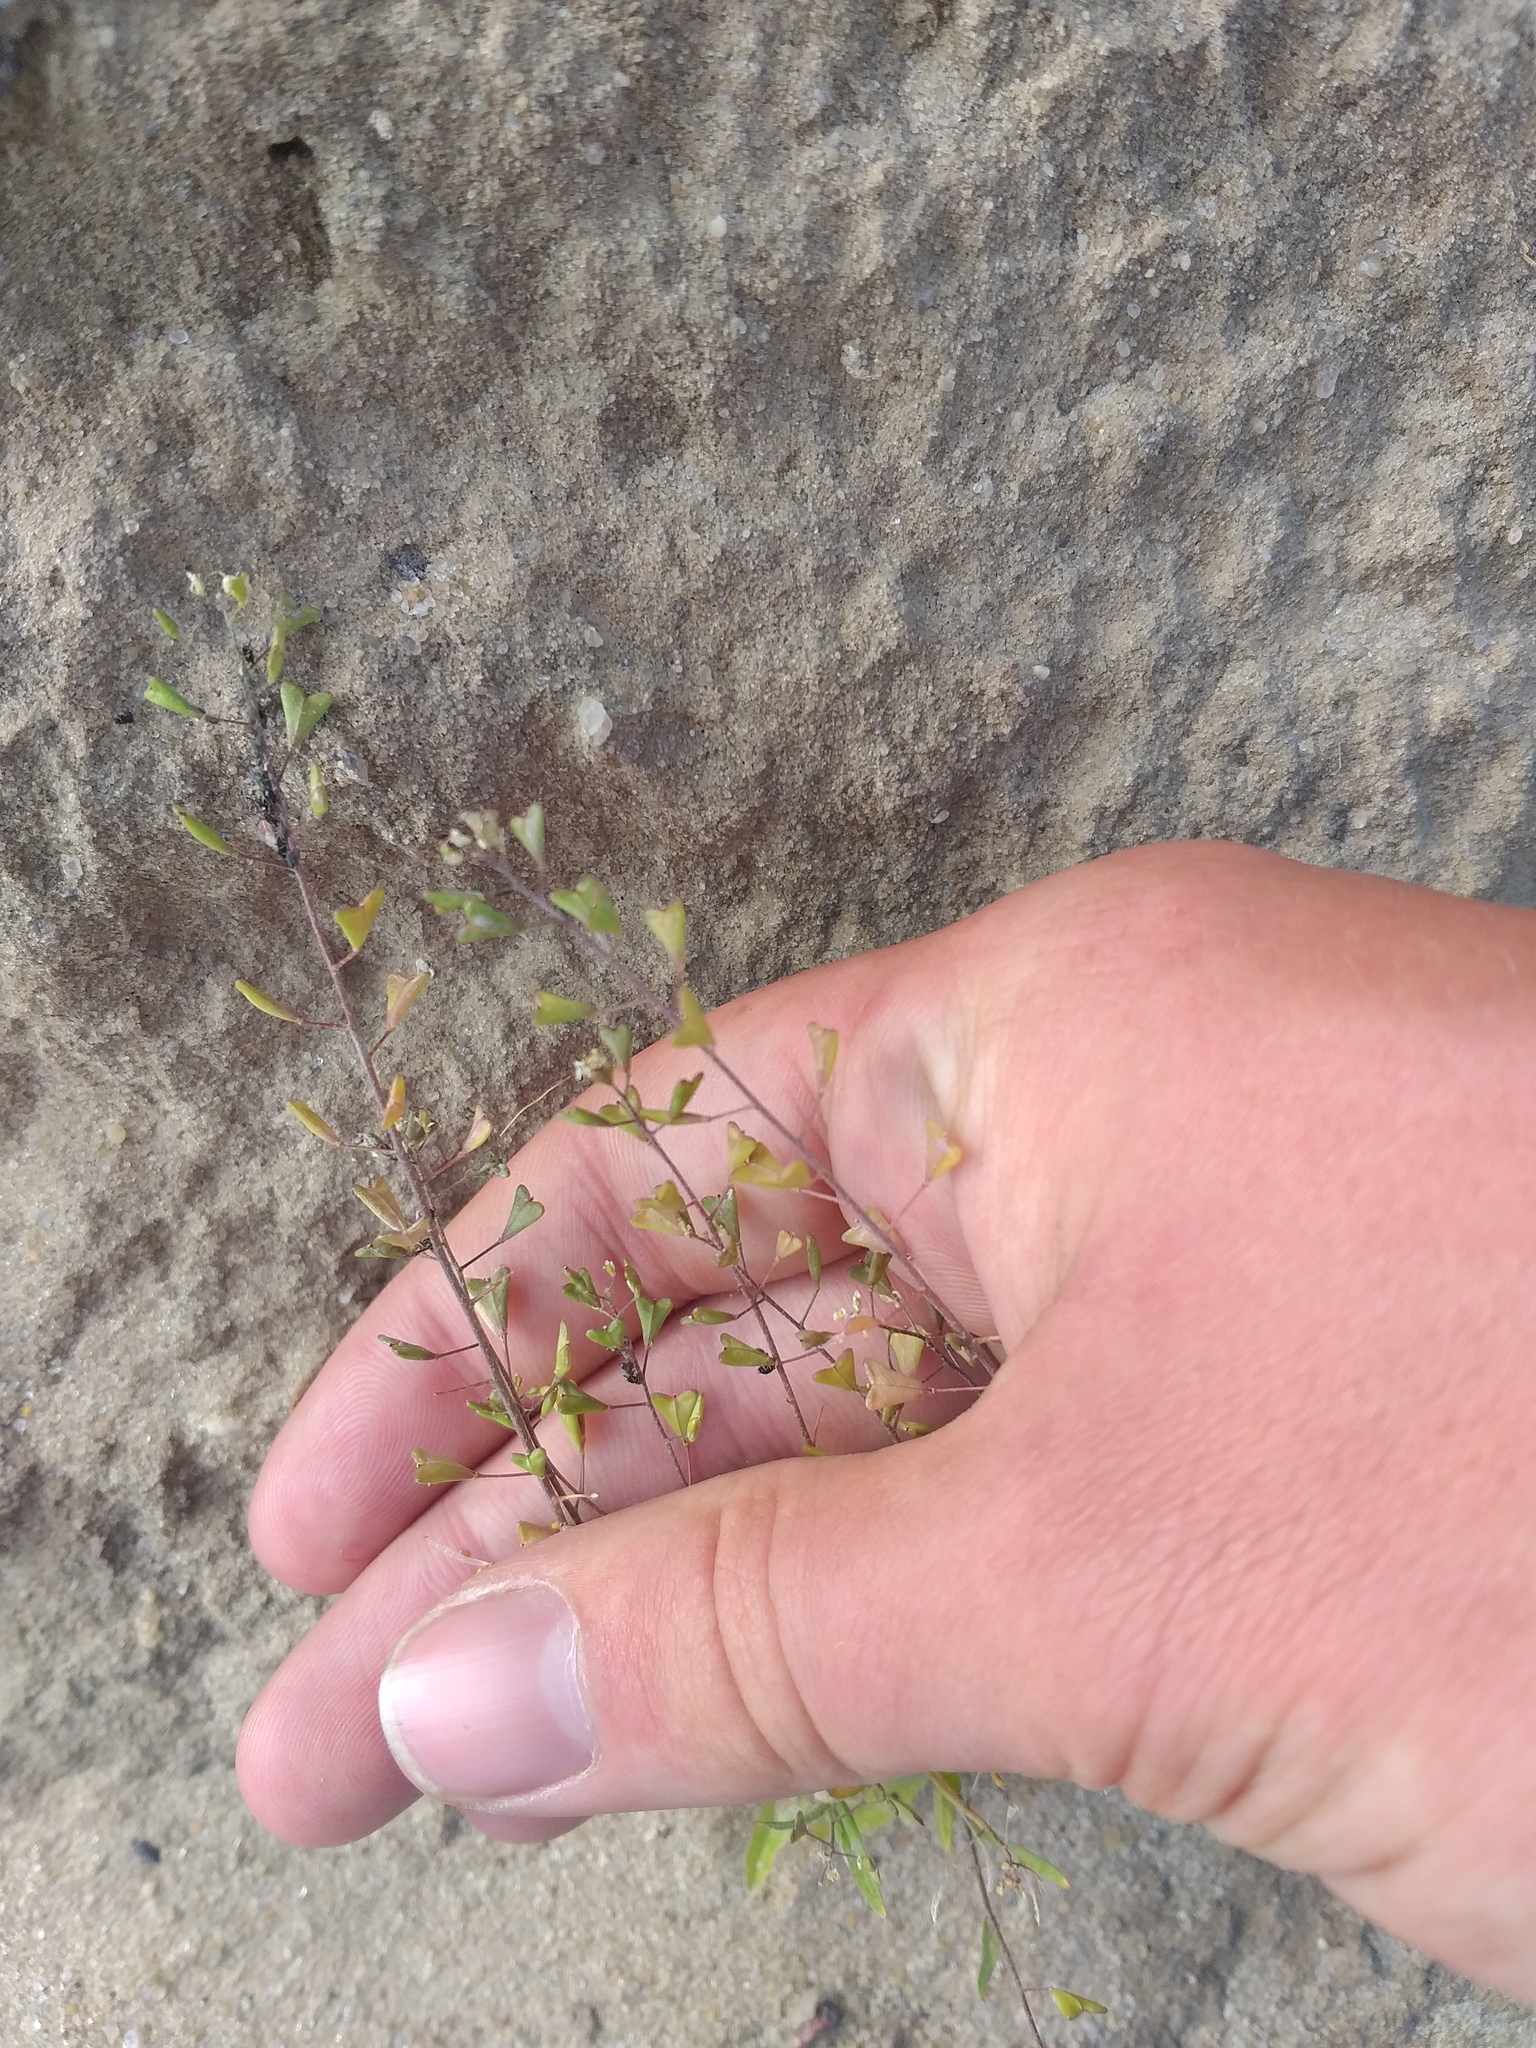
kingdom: Plantae
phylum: Tracheophyta
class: Magnoliopsida
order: Brassicales
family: Brassicaceae
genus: Capsella
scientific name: Capsella bursa-pastoris
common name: Shepherd's purse
